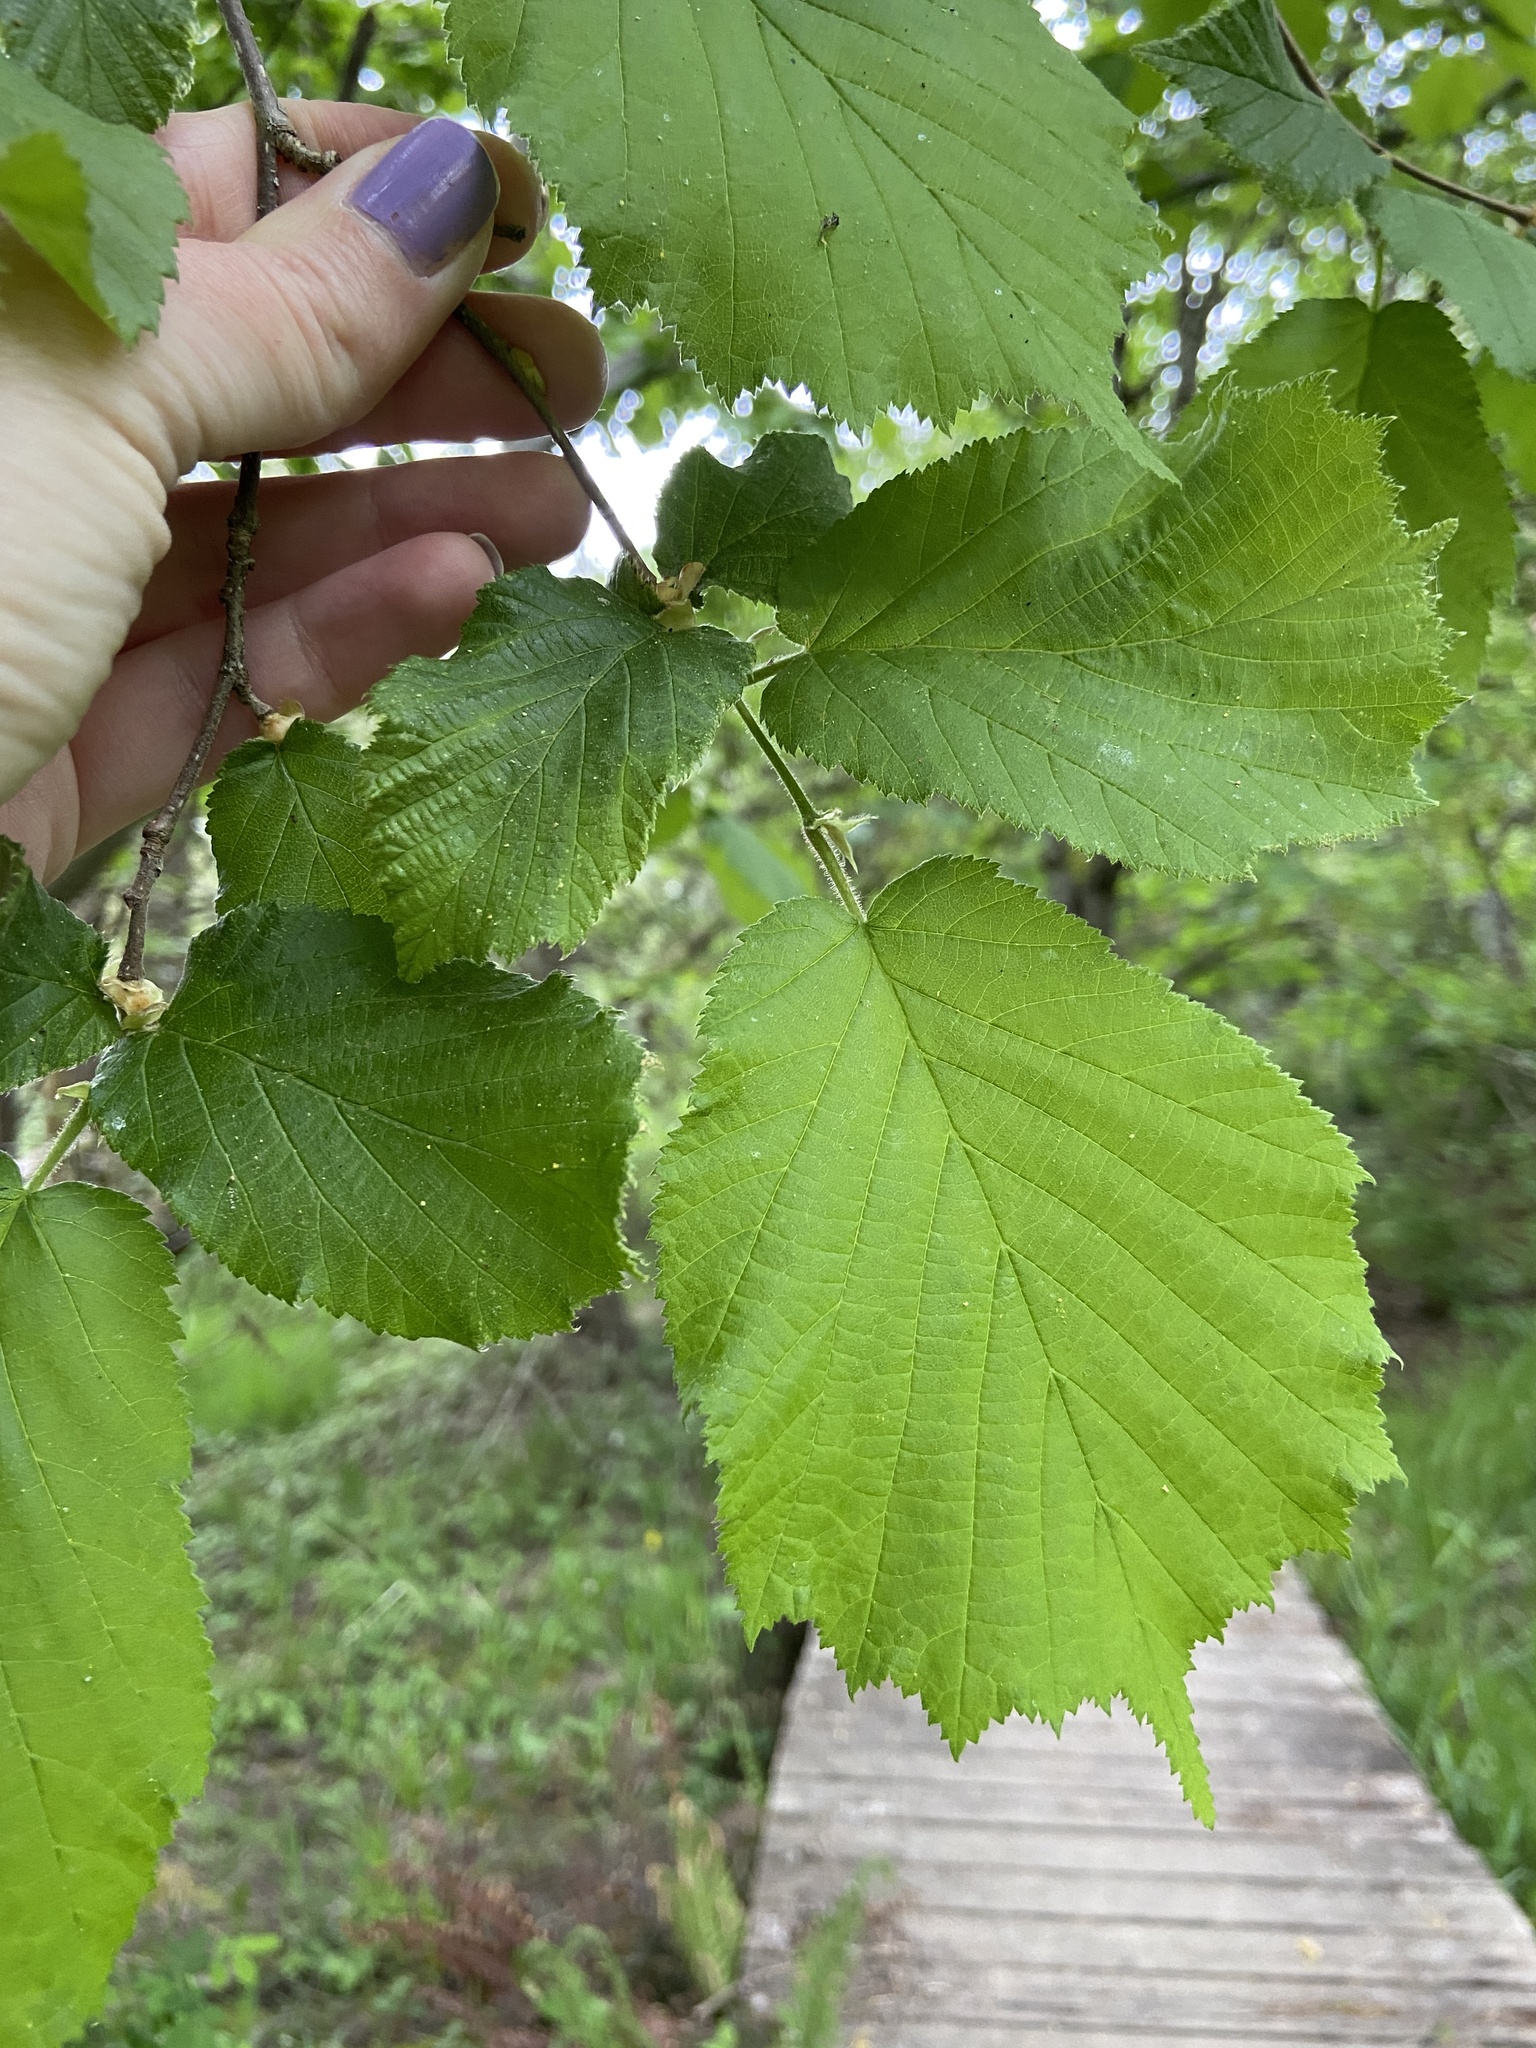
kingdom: Plantae
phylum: Tracheophyta
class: Magnoliopsida
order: Fagales
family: Betulaceae
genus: Corylus
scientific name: Corylus avellana
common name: European hazel
